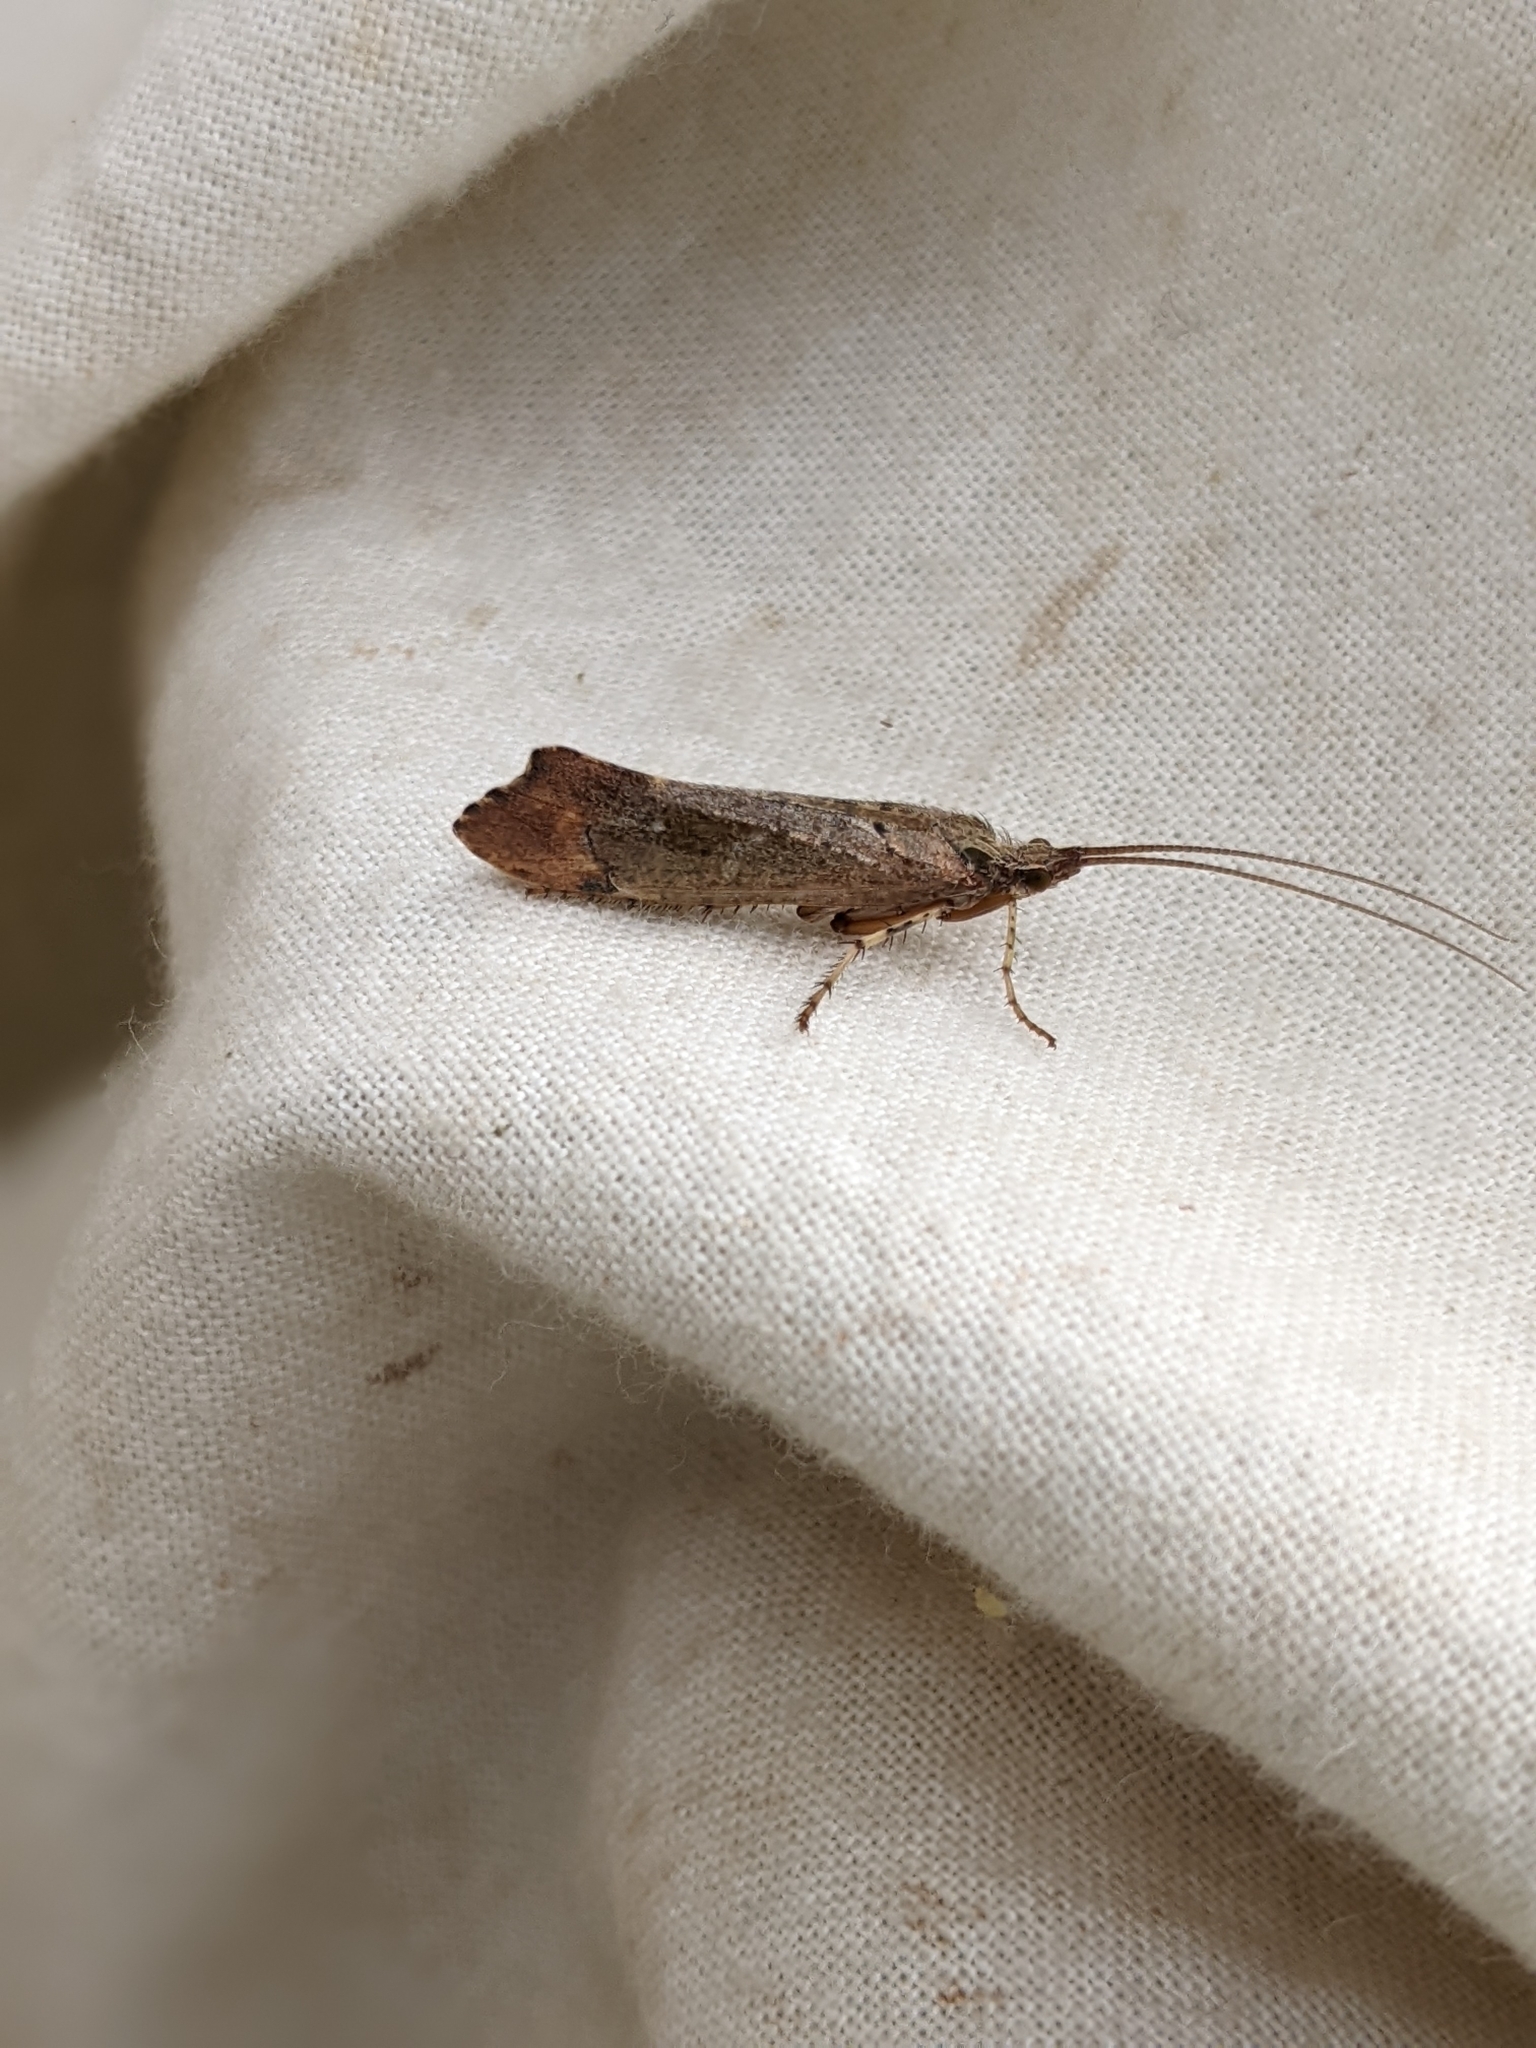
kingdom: Animalia
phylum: Arthropoda
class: Insecta
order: Trichoptera
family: Limnephilidae
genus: Glyphotaelius
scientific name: Glyphotaelius pellucidus
